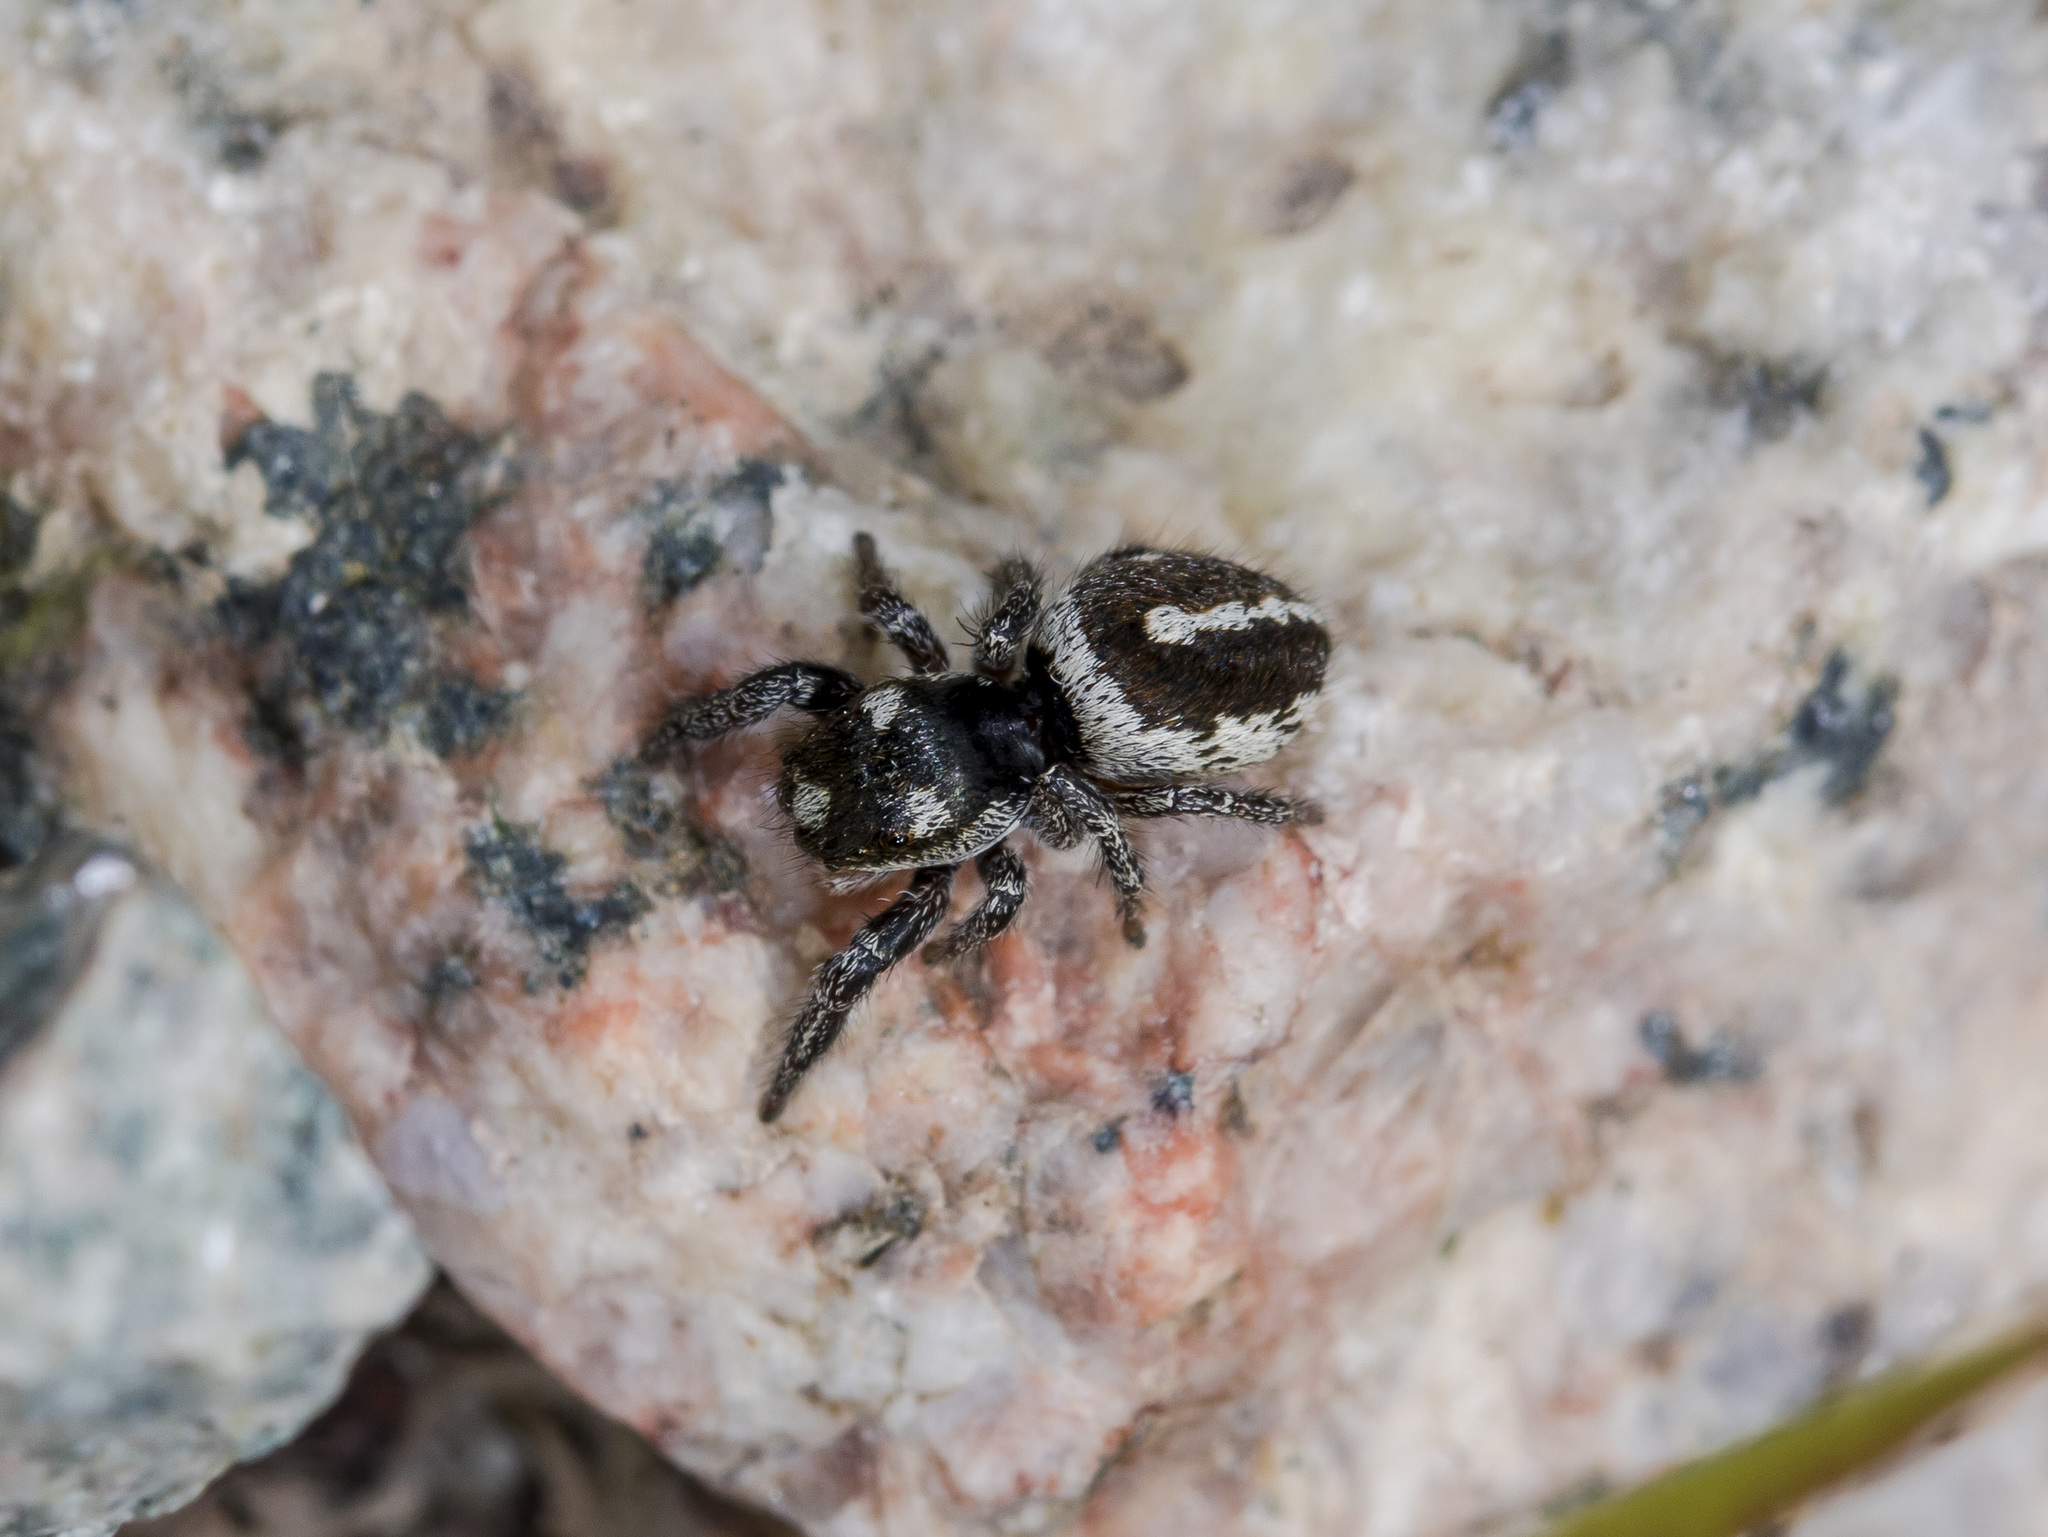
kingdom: Animalia
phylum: Arthropoda
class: Arachnida
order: Araneae
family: Salticidae
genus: Pellenes
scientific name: Pellenes allegrii
